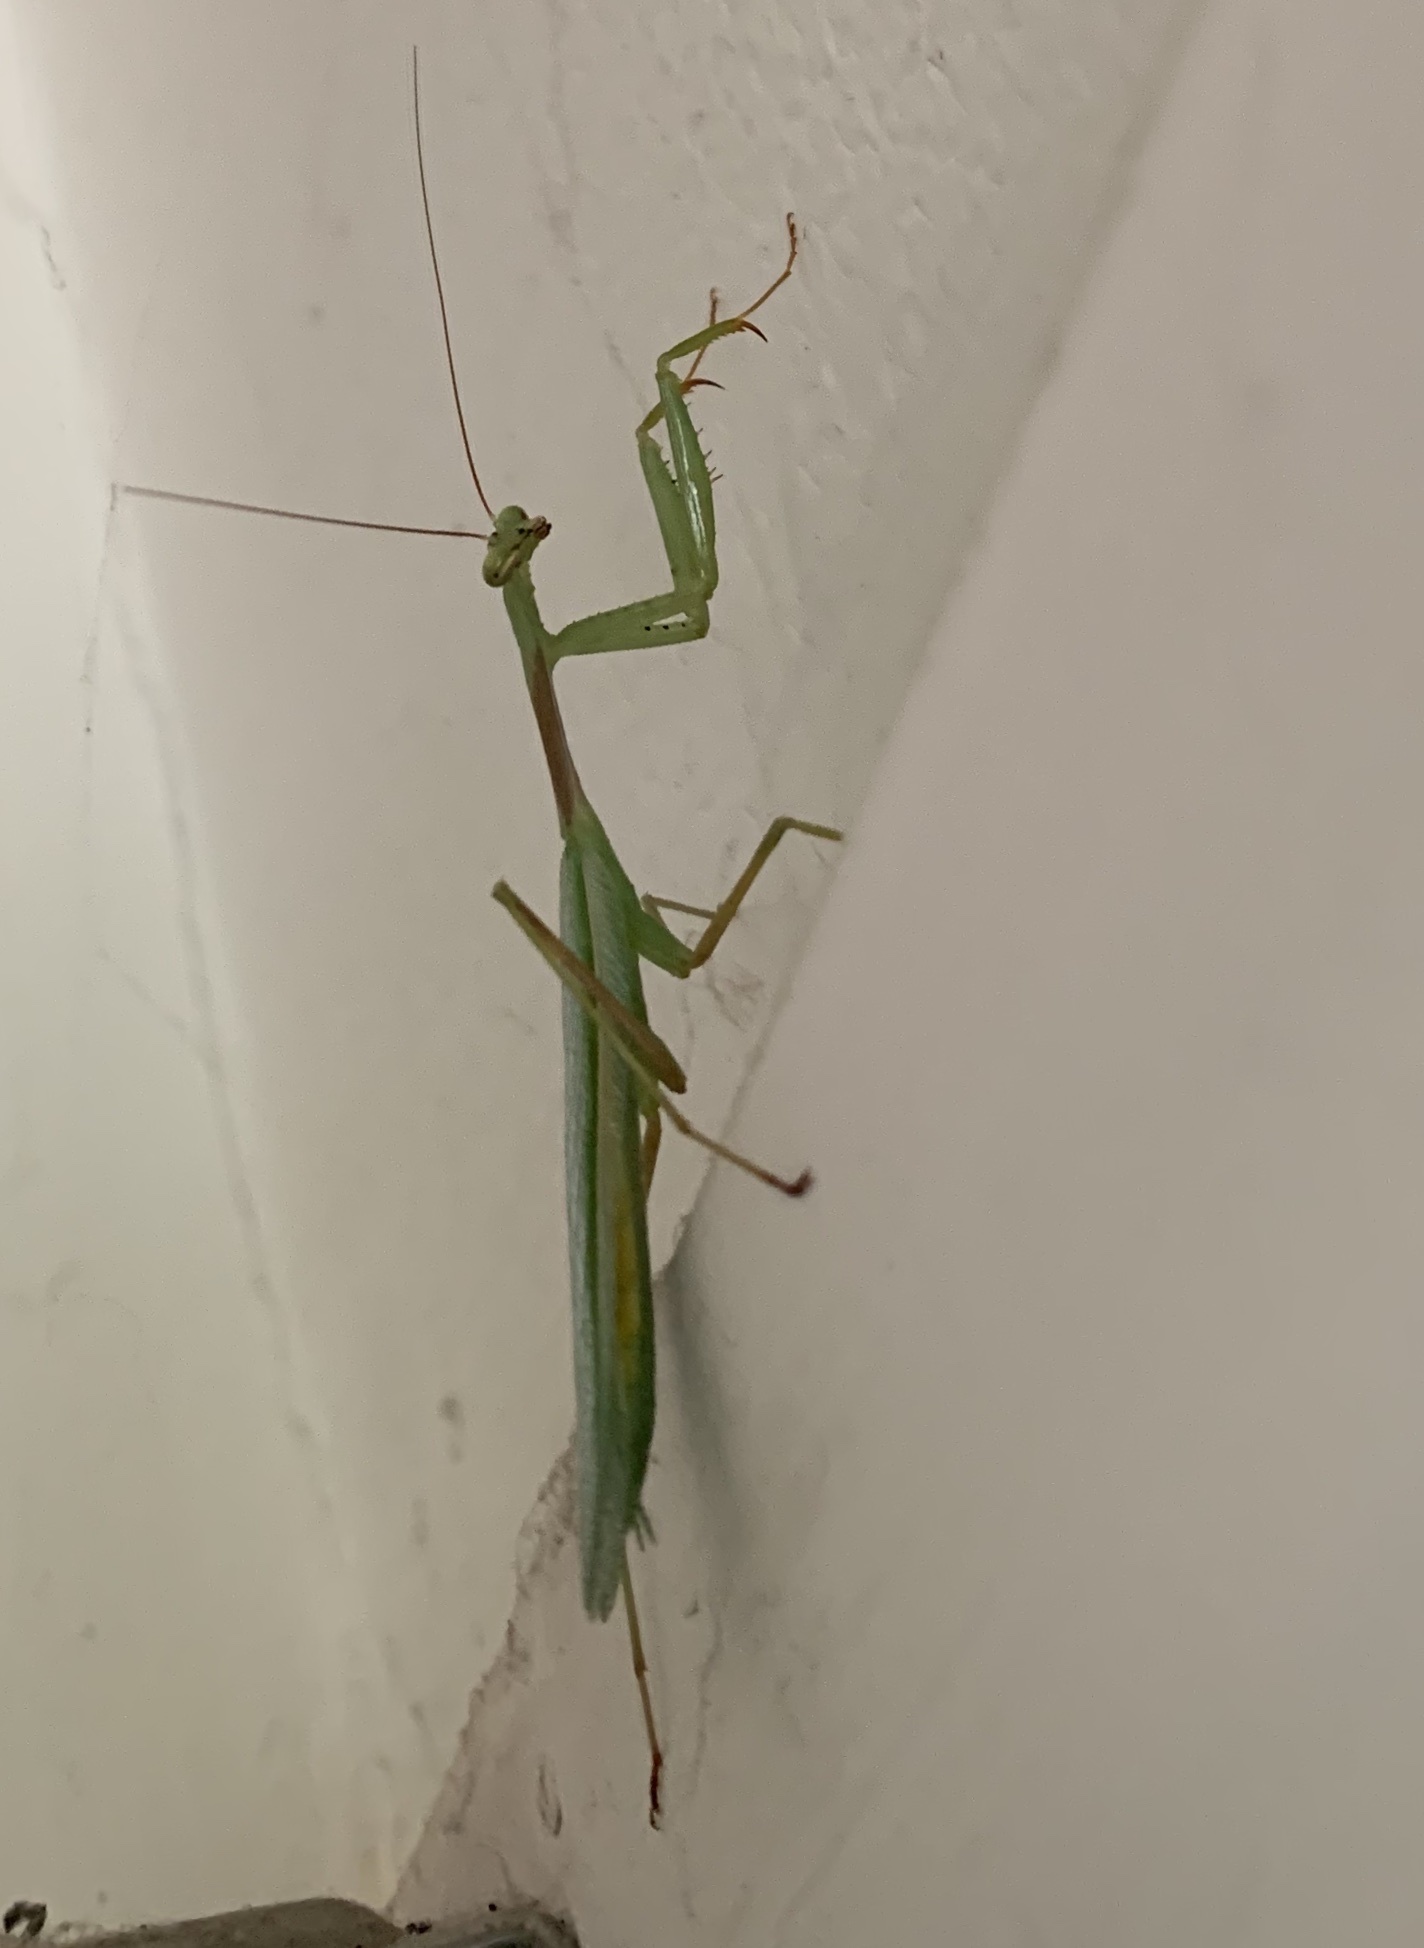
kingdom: Animalia
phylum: Arthropoda
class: Insecta
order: Mantodea
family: Miomantidae
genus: Miomantis
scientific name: Miomantis caffra
